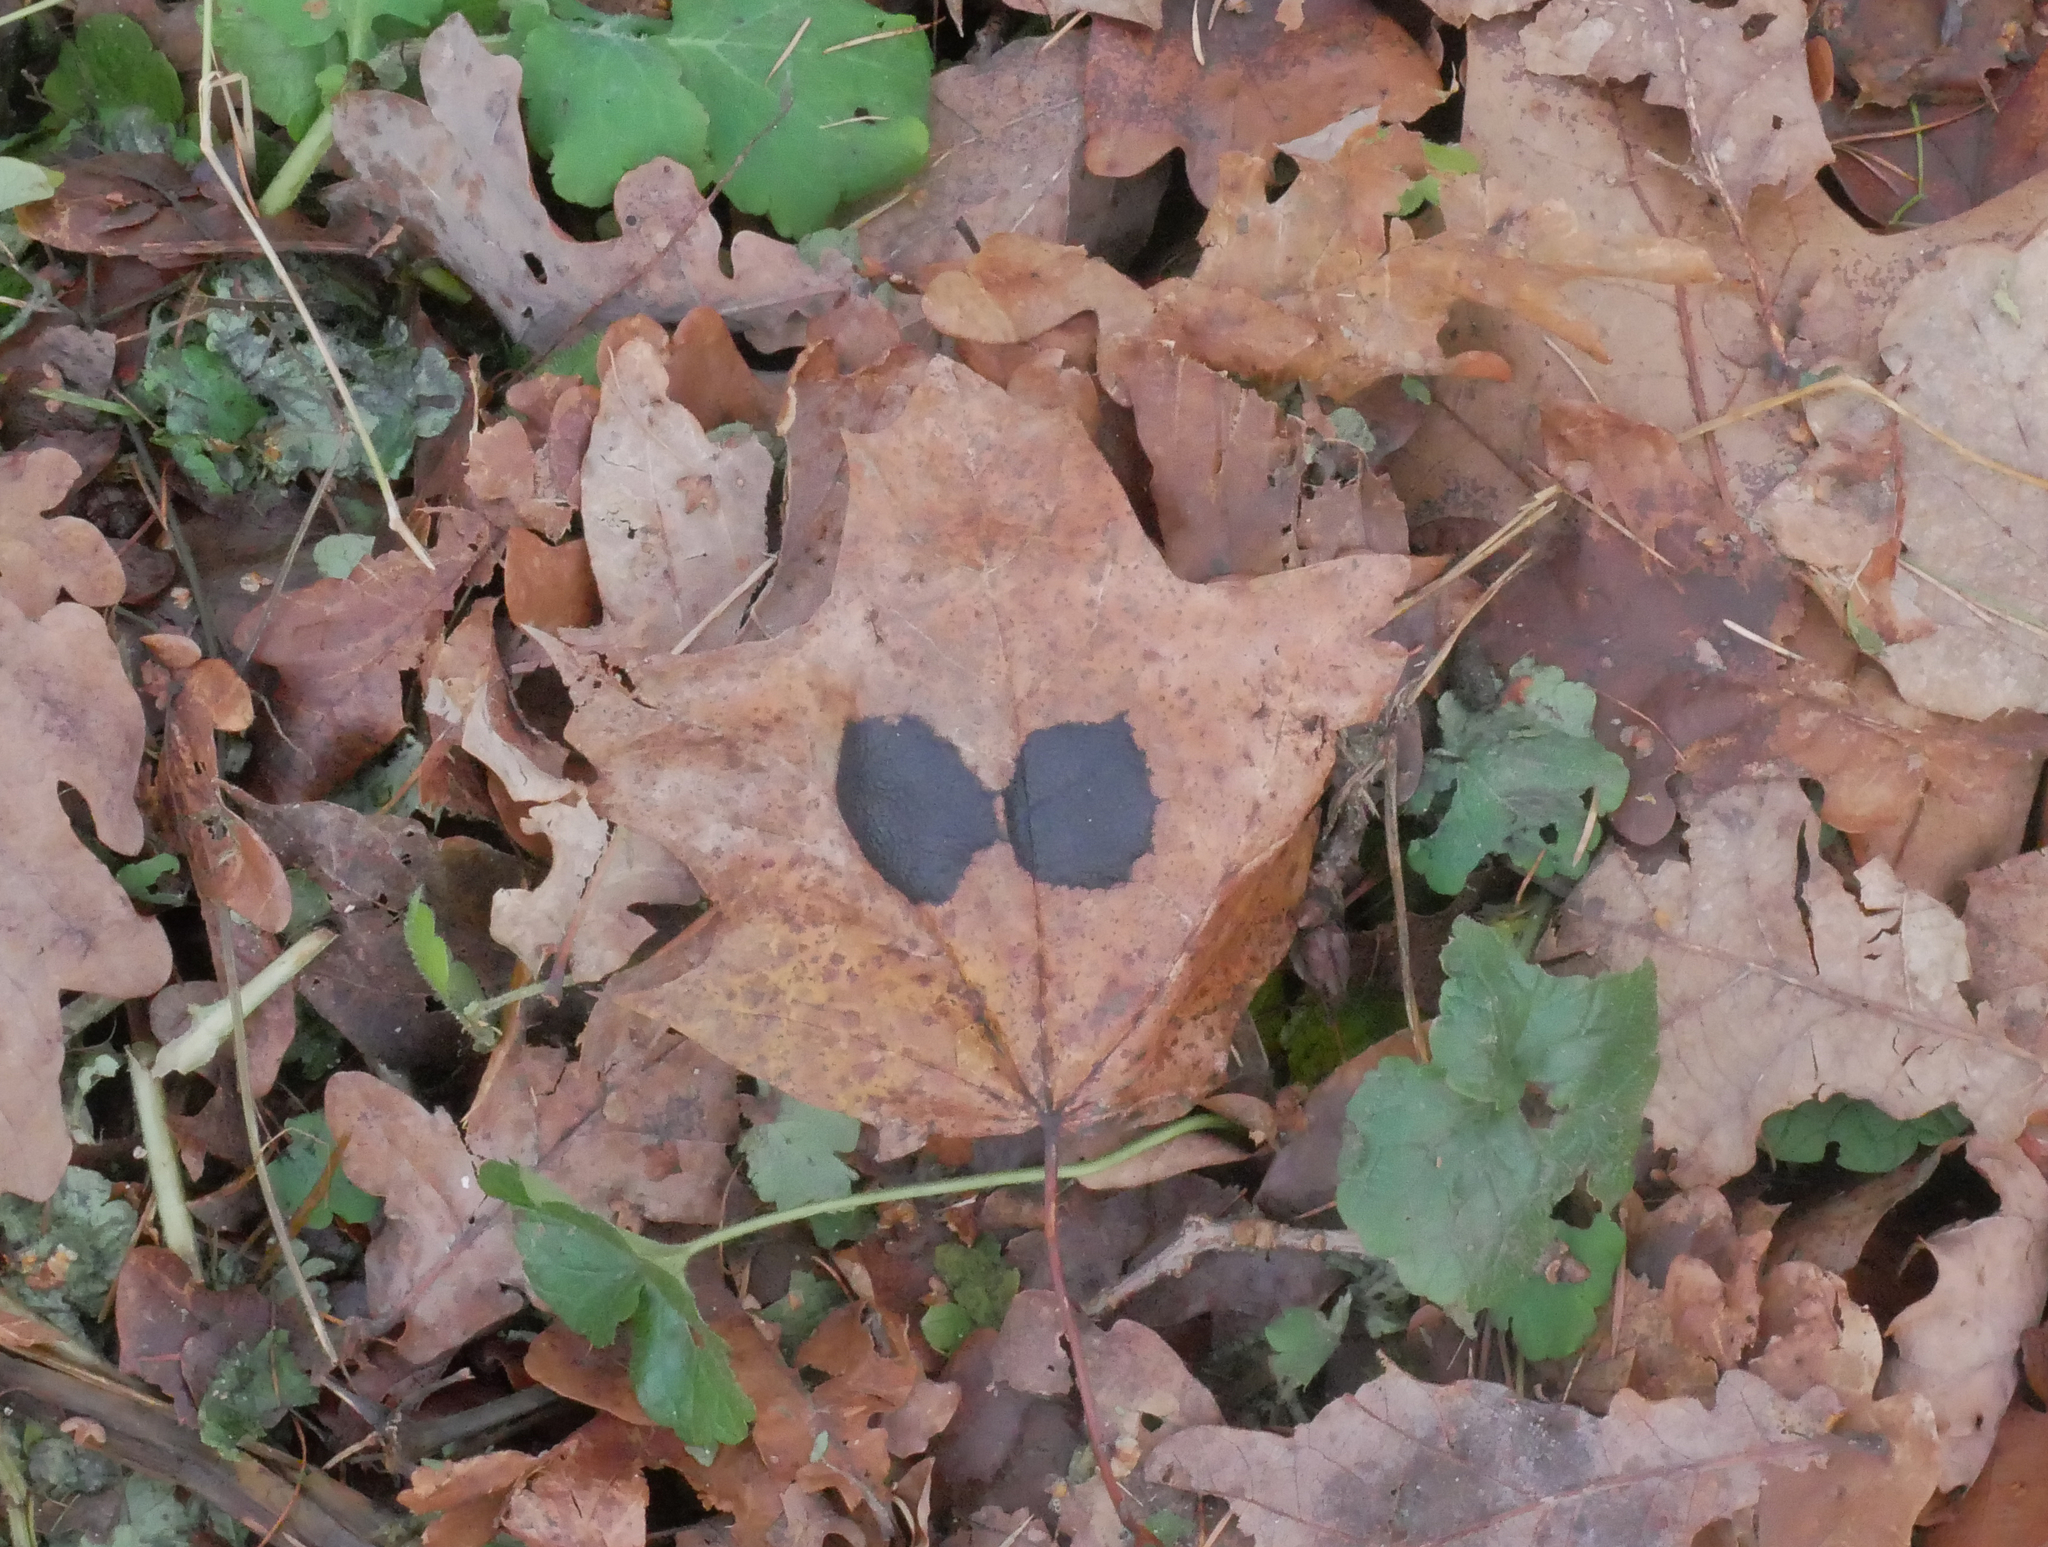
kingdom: Fungi
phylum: Ascomycota
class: Leotiomycetes
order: Rhytismatales
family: Rhytismataceae
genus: Rhytisma
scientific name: Rhytisma acerinum
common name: European tar spot
